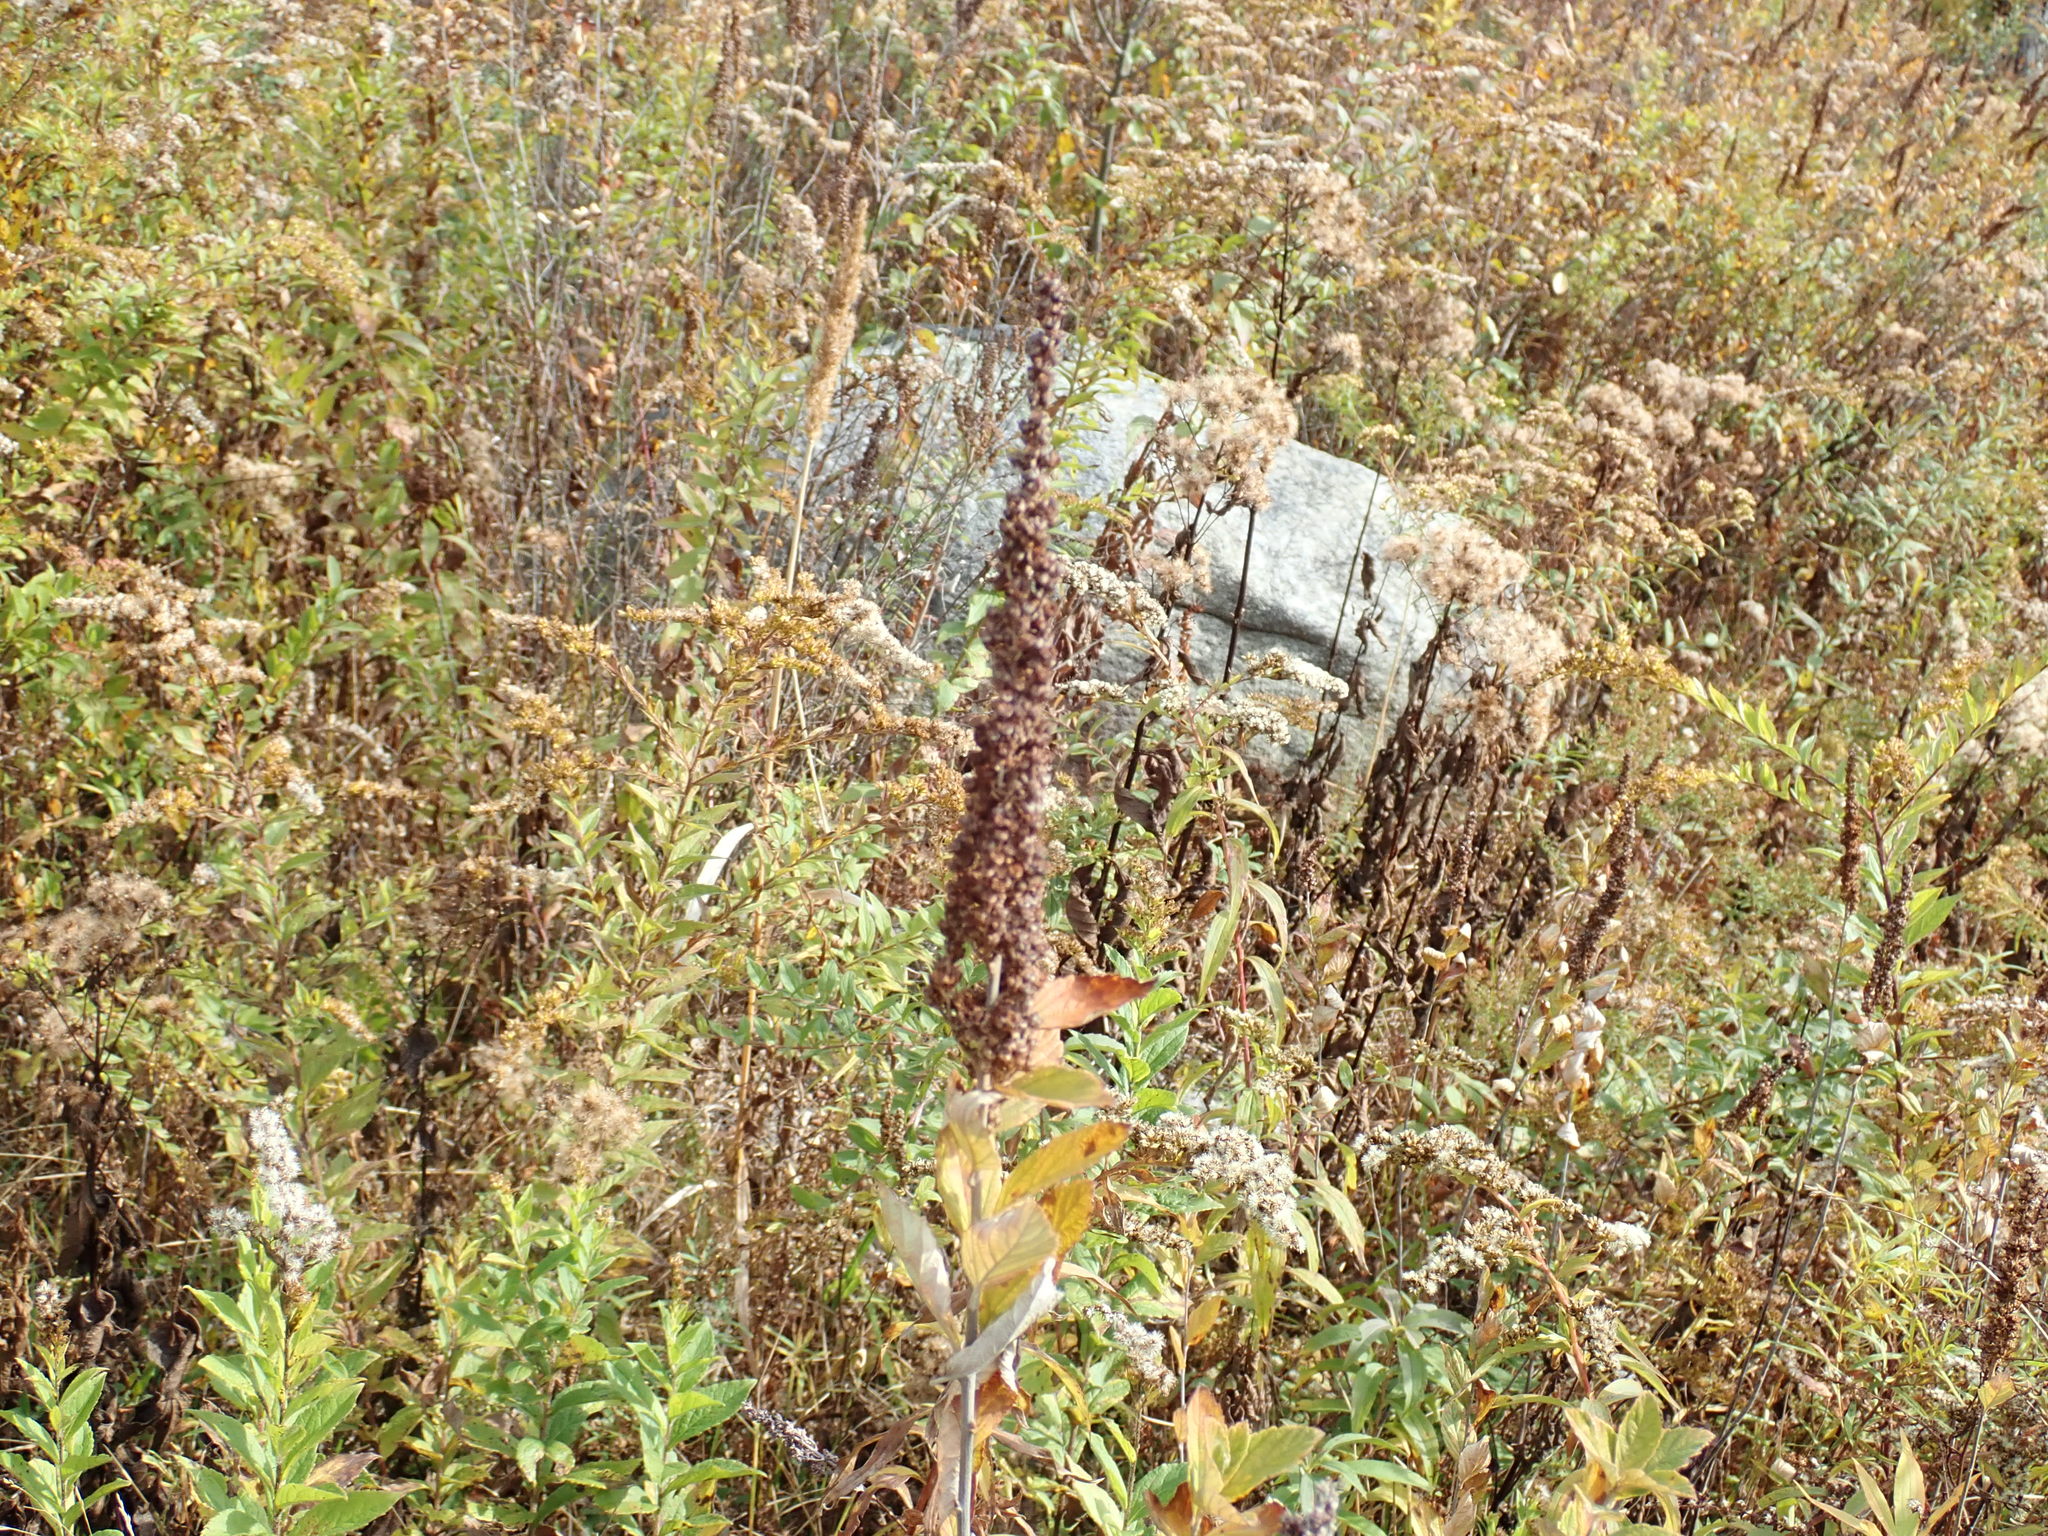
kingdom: Plantae
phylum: Tracheophyta
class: Magnoliopsida
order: Rosales
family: Rosaceae
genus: Spiraea
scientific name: Spiraea tomentosa
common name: Hardhack
